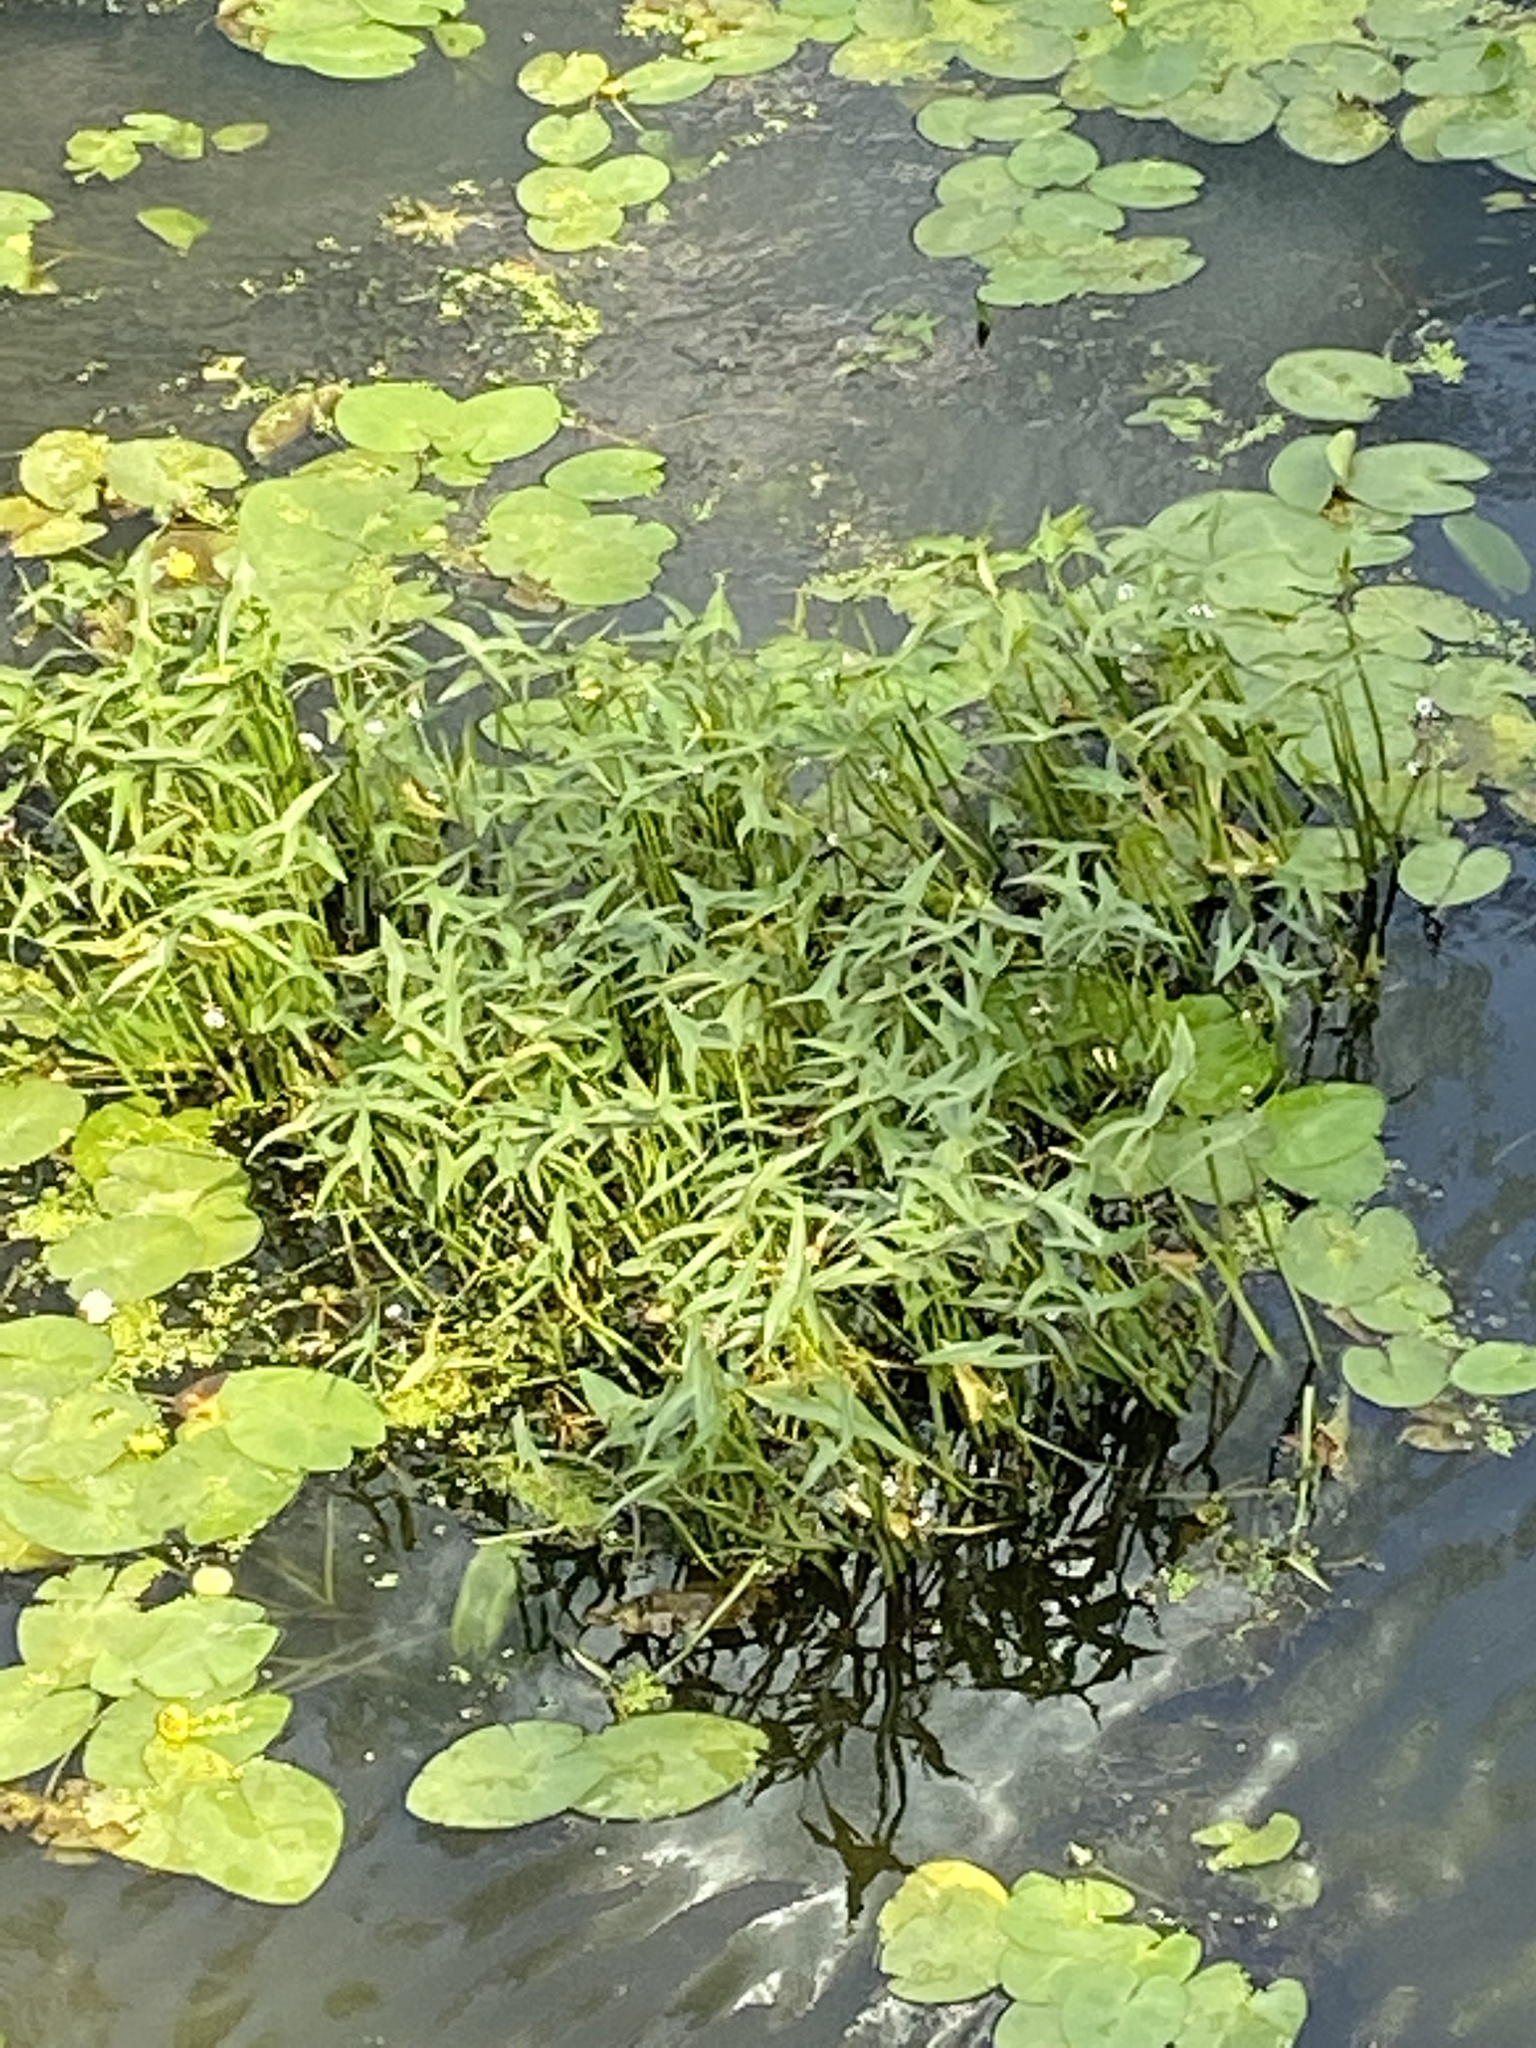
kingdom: Plantae
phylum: Tracheophyta
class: Liliopsida
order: Alismatales
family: Alismataceae
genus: Sagittaria
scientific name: Sagittaria sagittifolia
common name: Arrowhead
